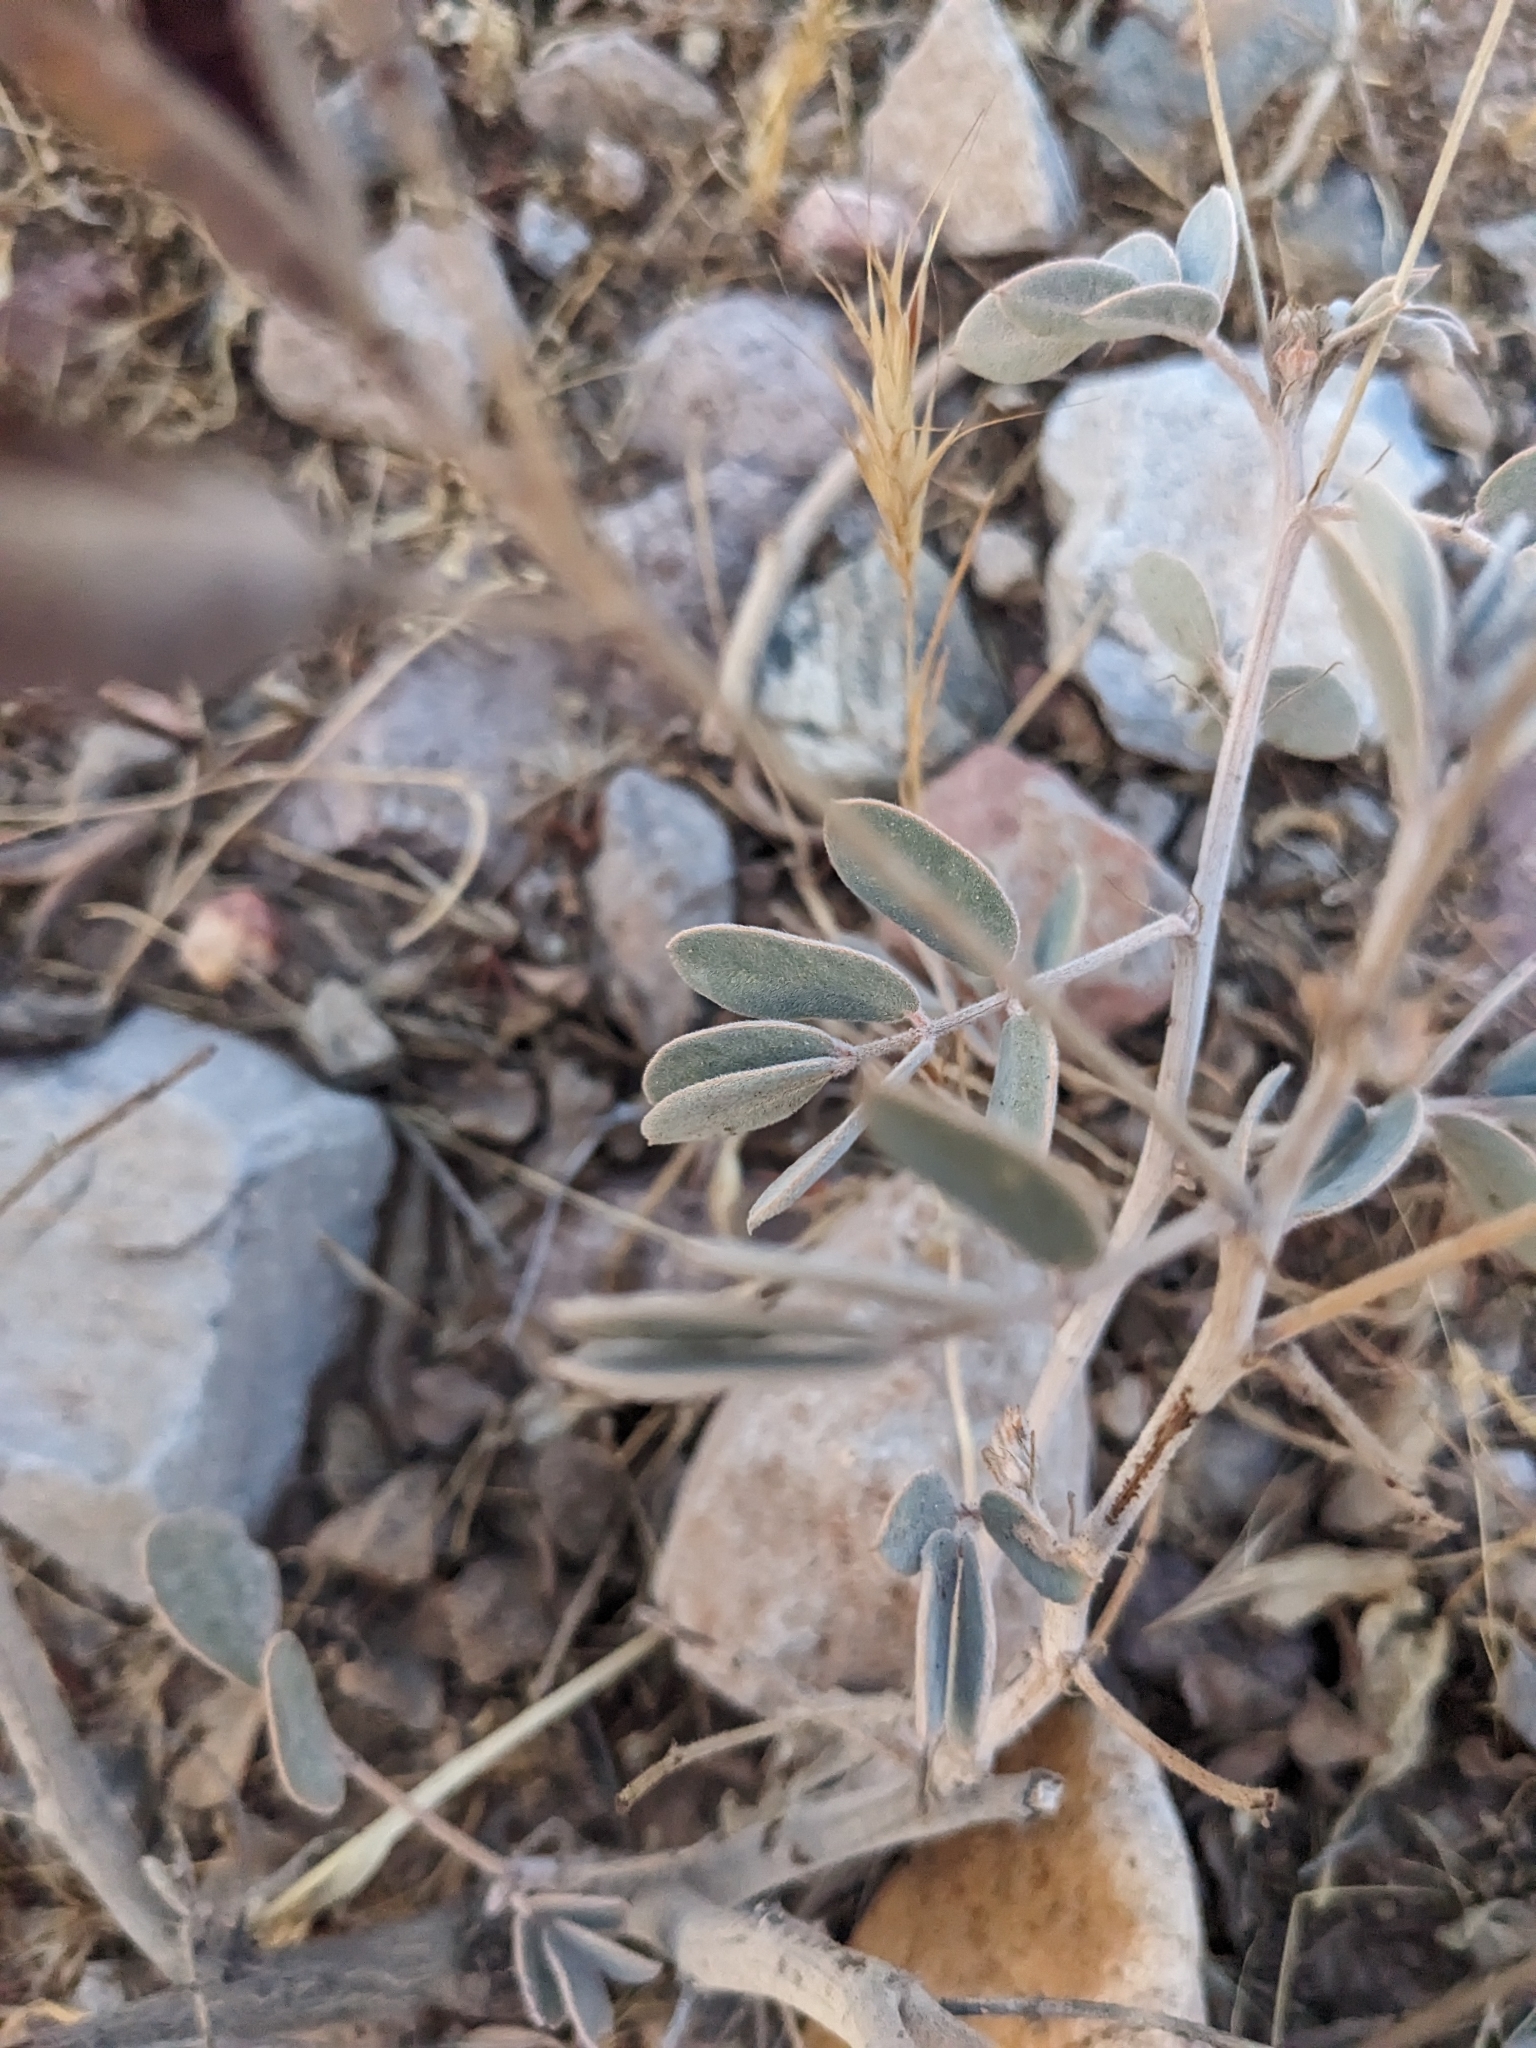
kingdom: Plantae
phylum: Tracheophyta
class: Magnoliopsida
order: Fabales
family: Fabaceae
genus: Senna
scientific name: Senna covesii
